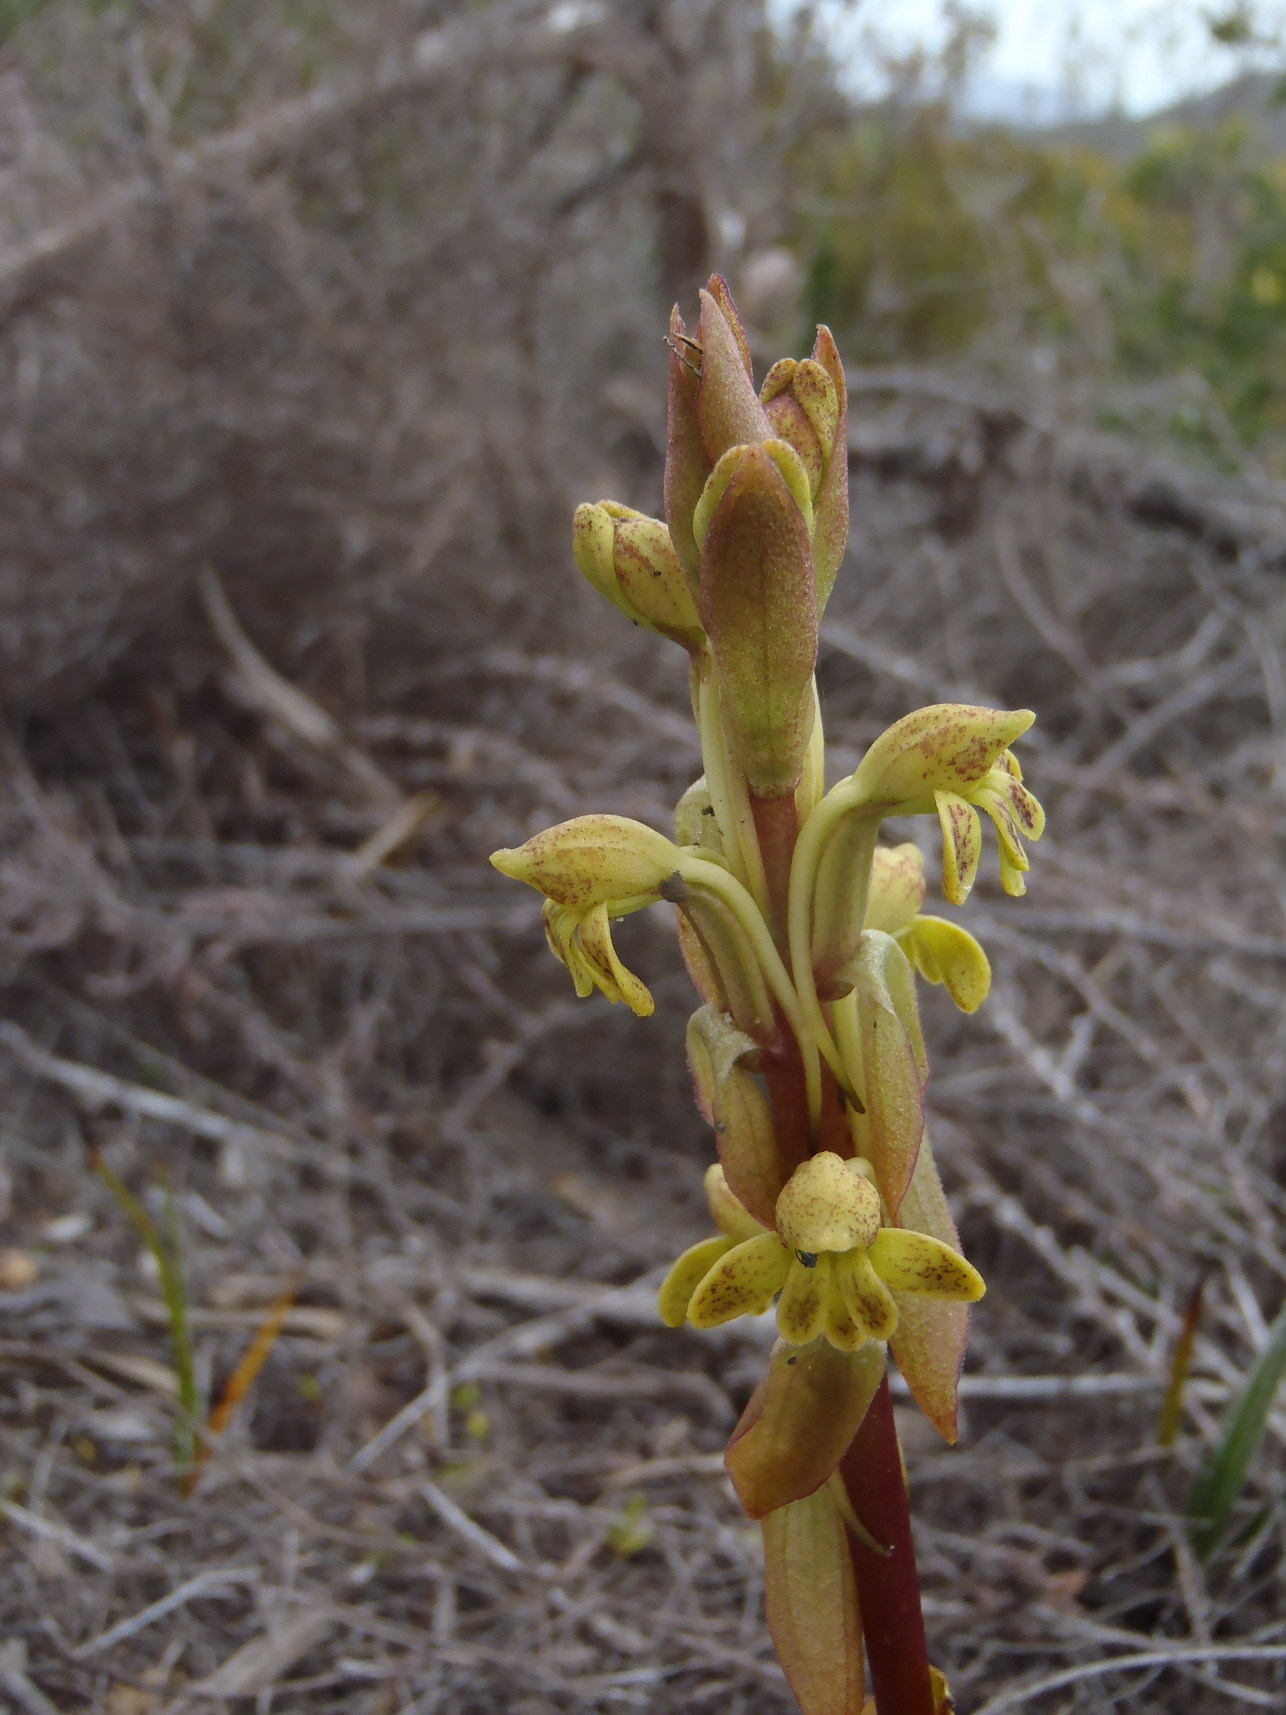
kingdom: Plantae
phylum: Tracheophyta
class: Liliopsida
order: Asparagales
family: Orchidaceae
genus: Satyrium
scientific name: Satyrium bicorne
